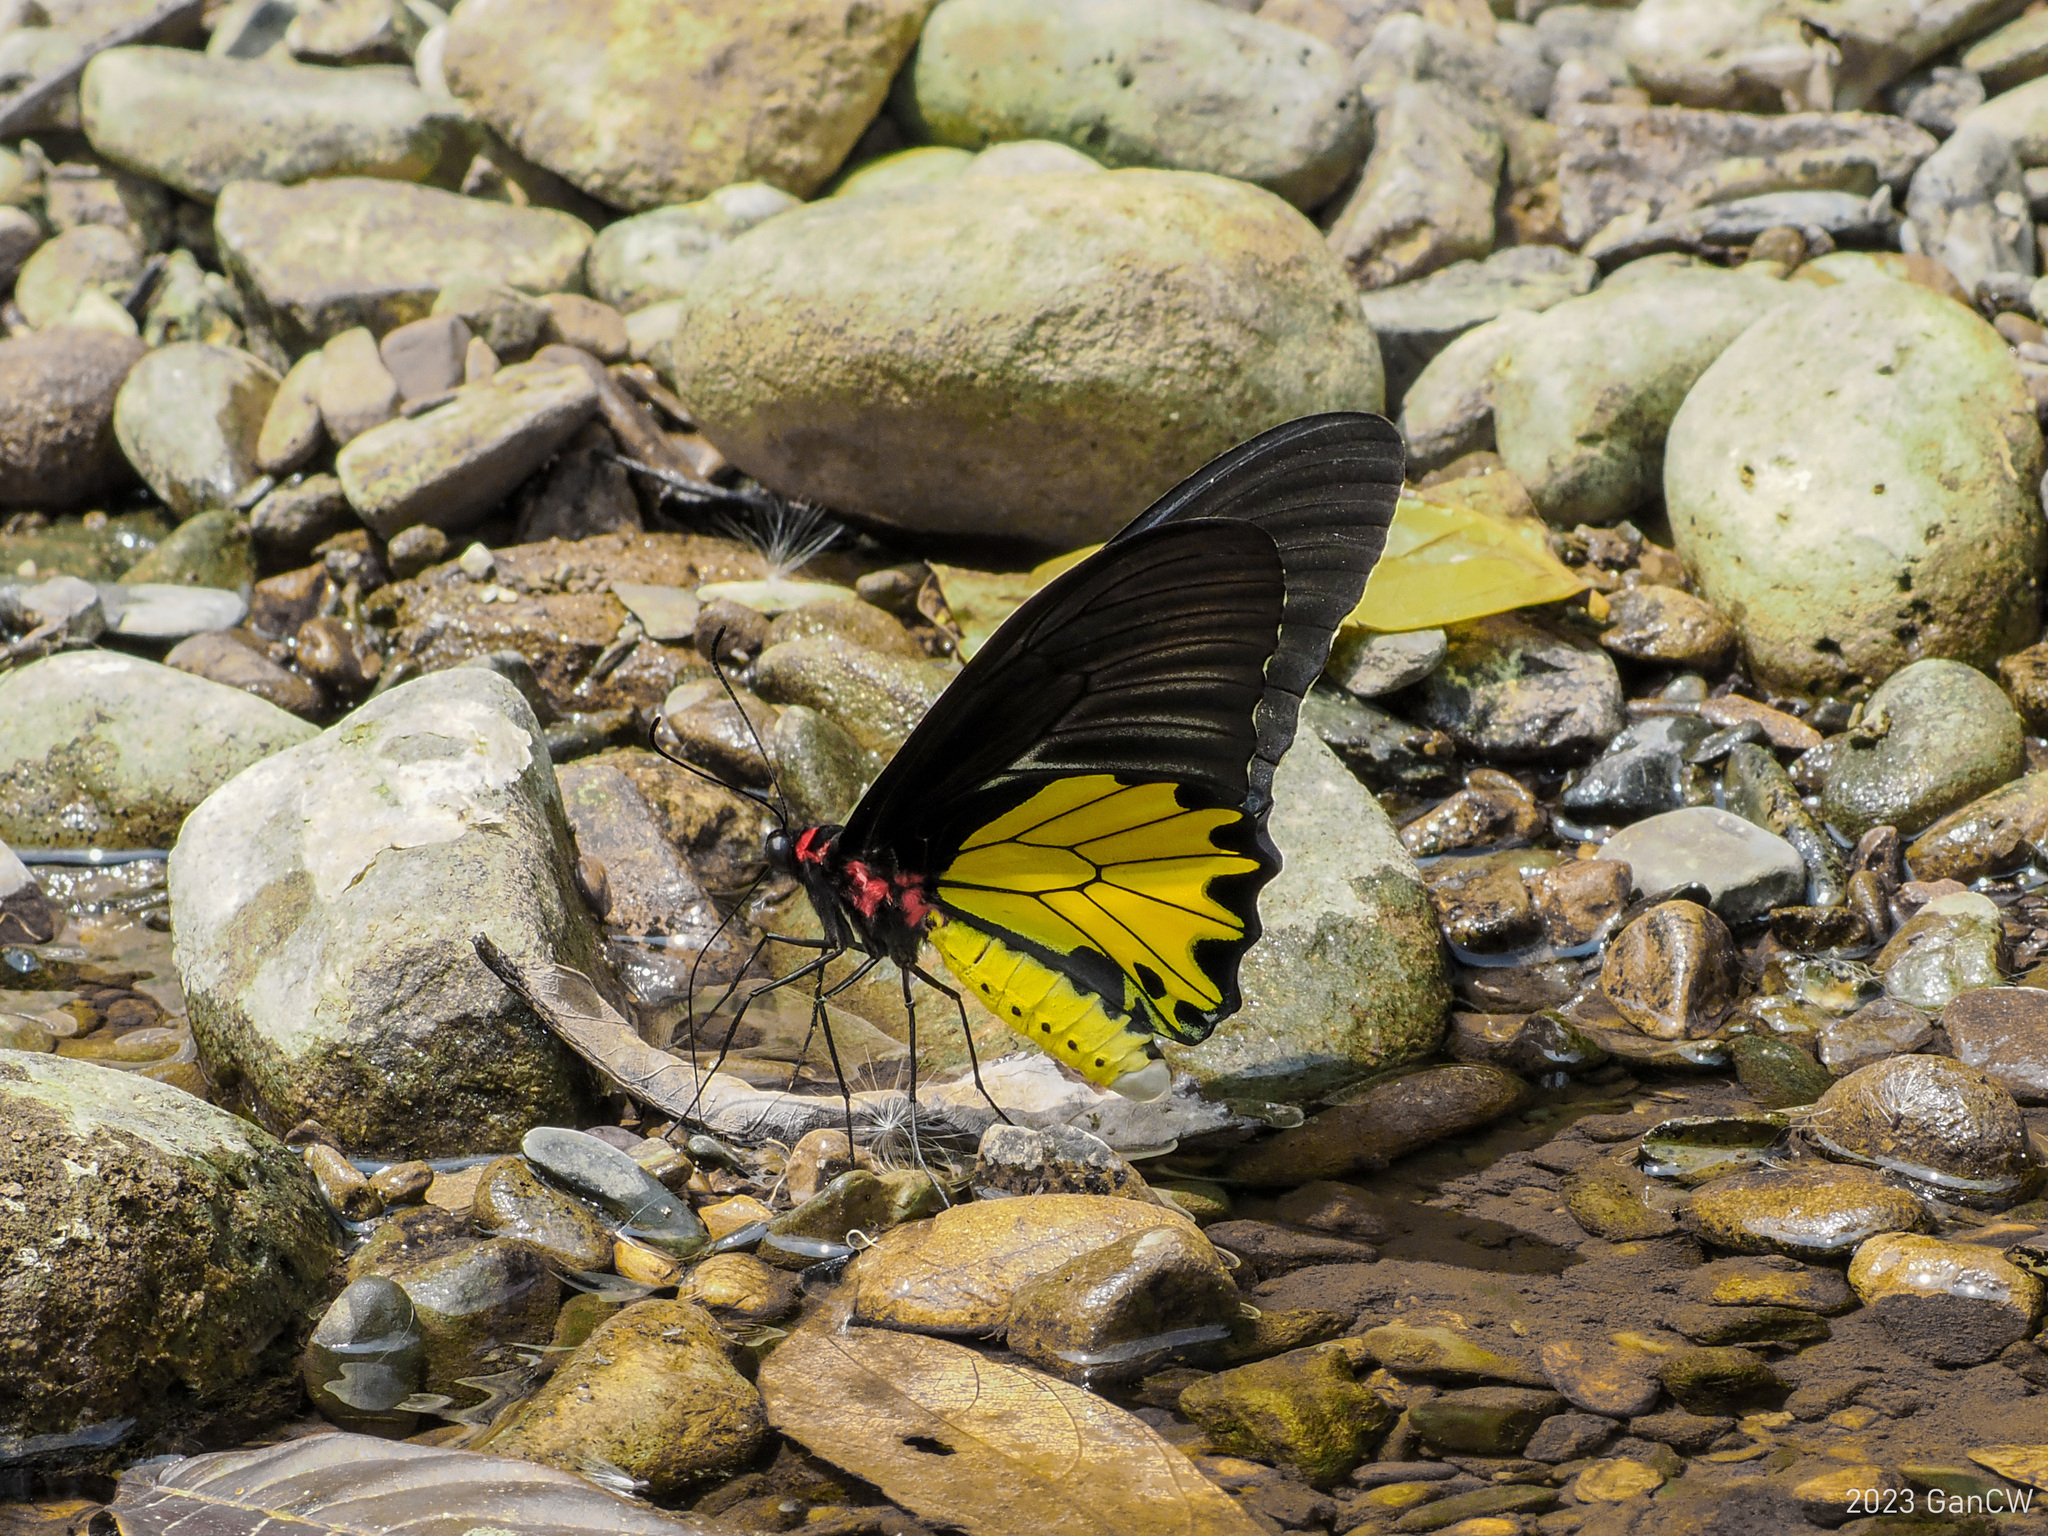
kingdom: Animalia
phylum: Arthropoda
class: Insecta
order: Lepidoptera
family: Papilionidae
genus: Troides
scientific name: Troides helena
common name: Common birdwing
